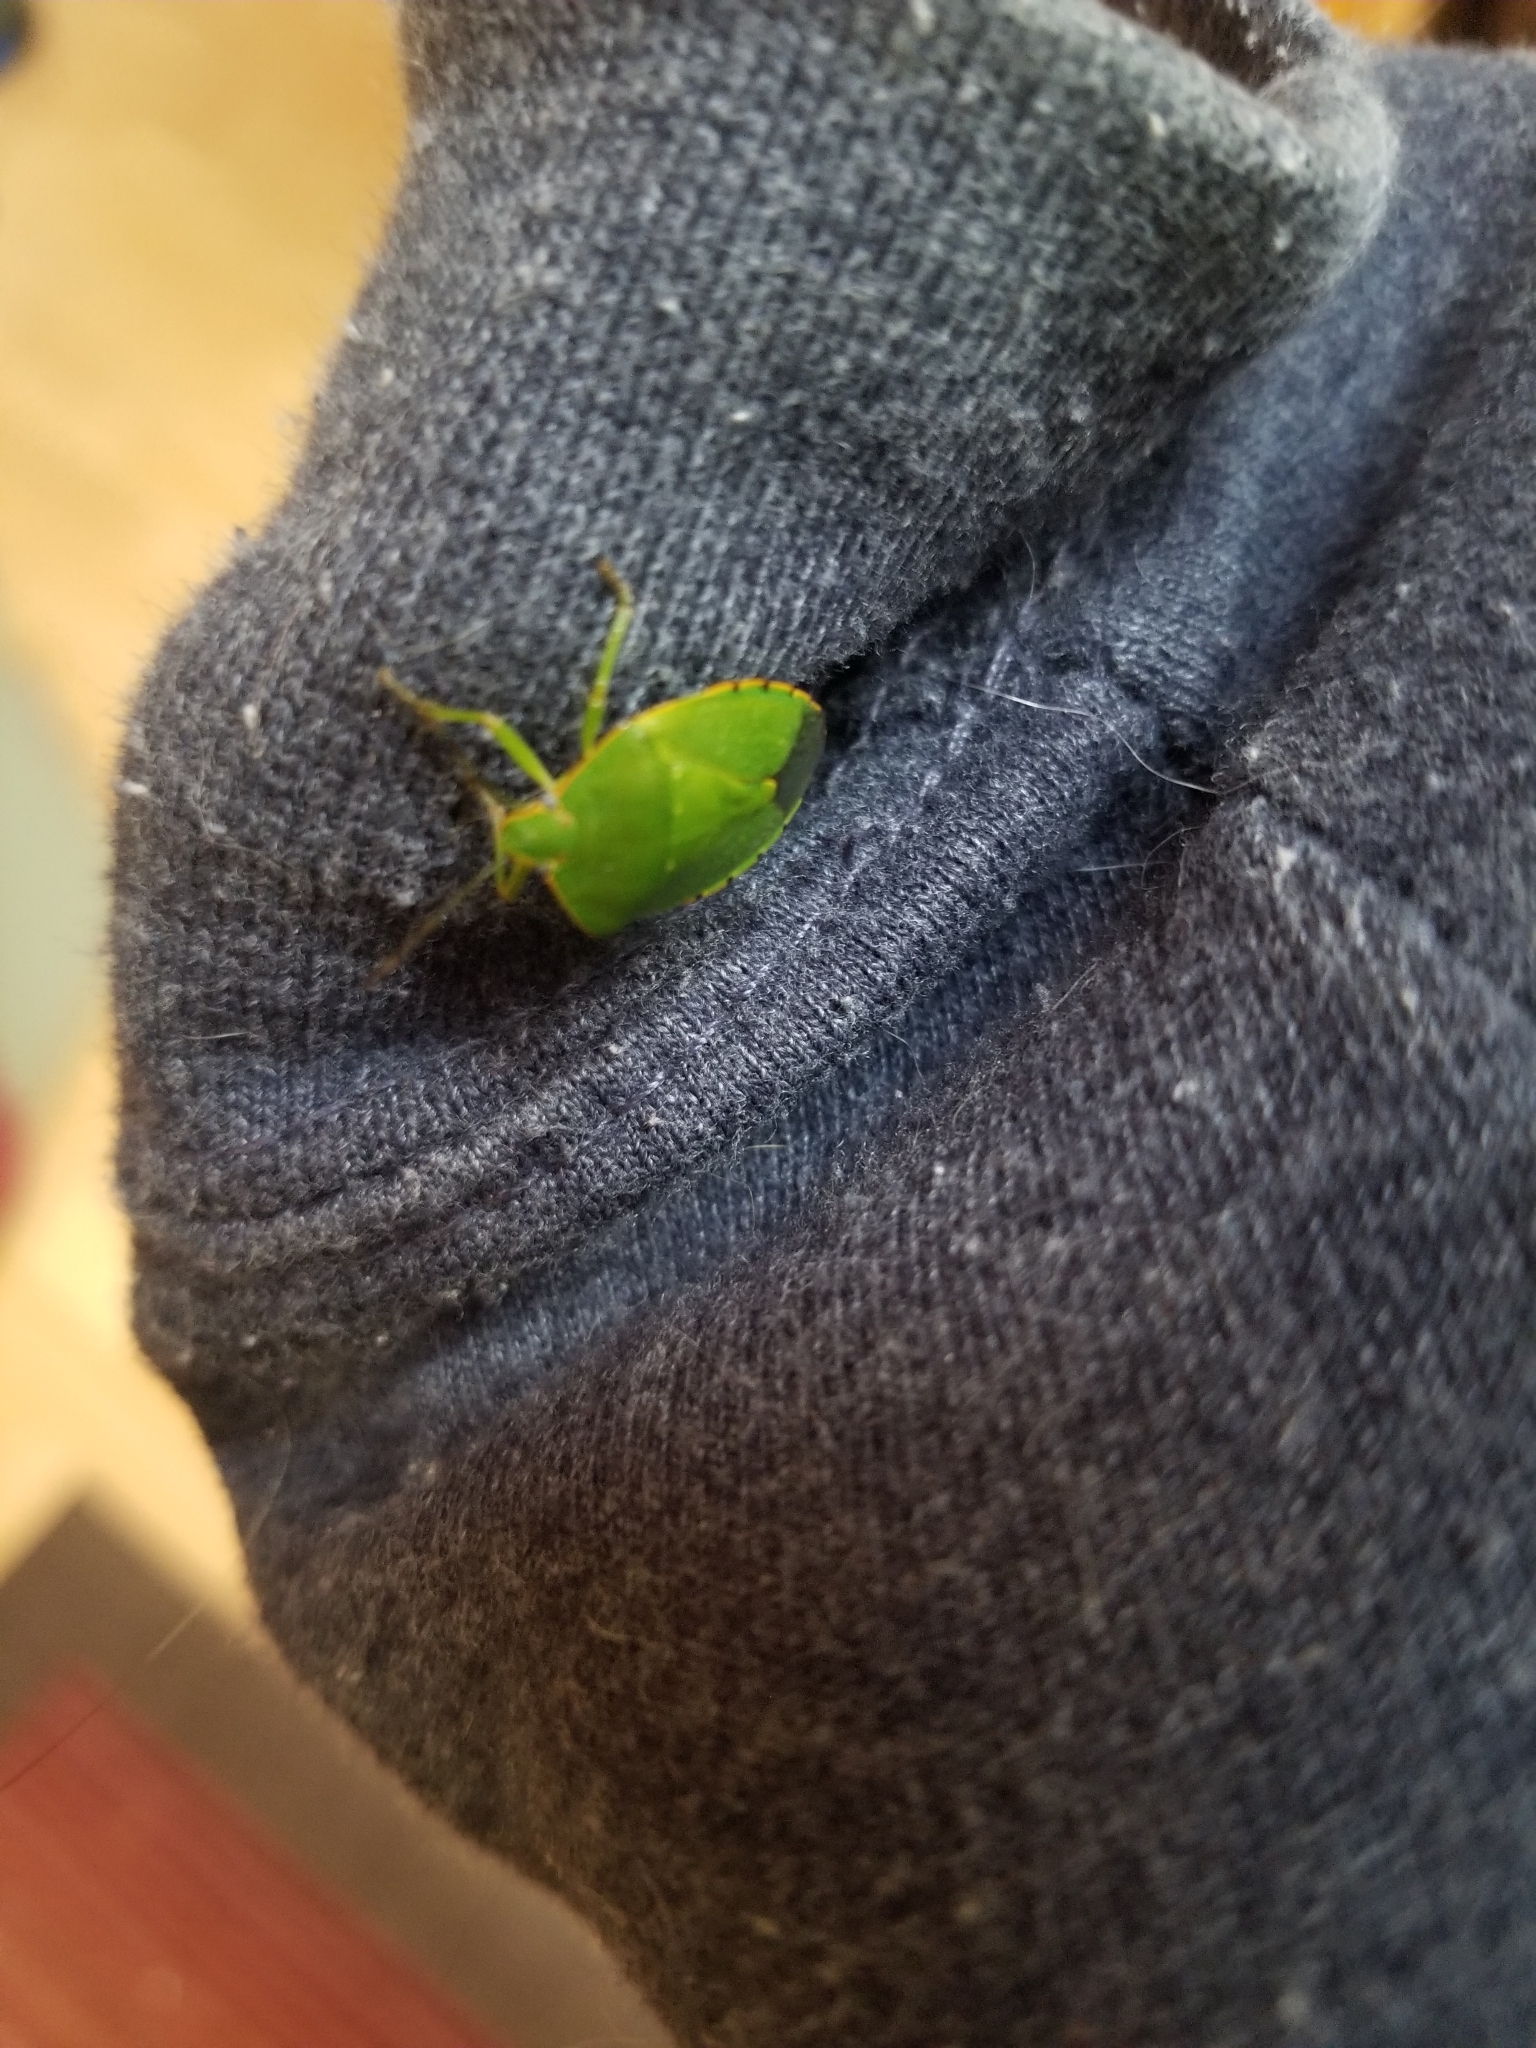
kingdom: Animalia
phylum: Arthropoda
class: Insecta
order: Hemiptera
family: Pentatomidae
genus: Chinavia
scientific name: Chinavia hilaris
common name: Green stink bug
